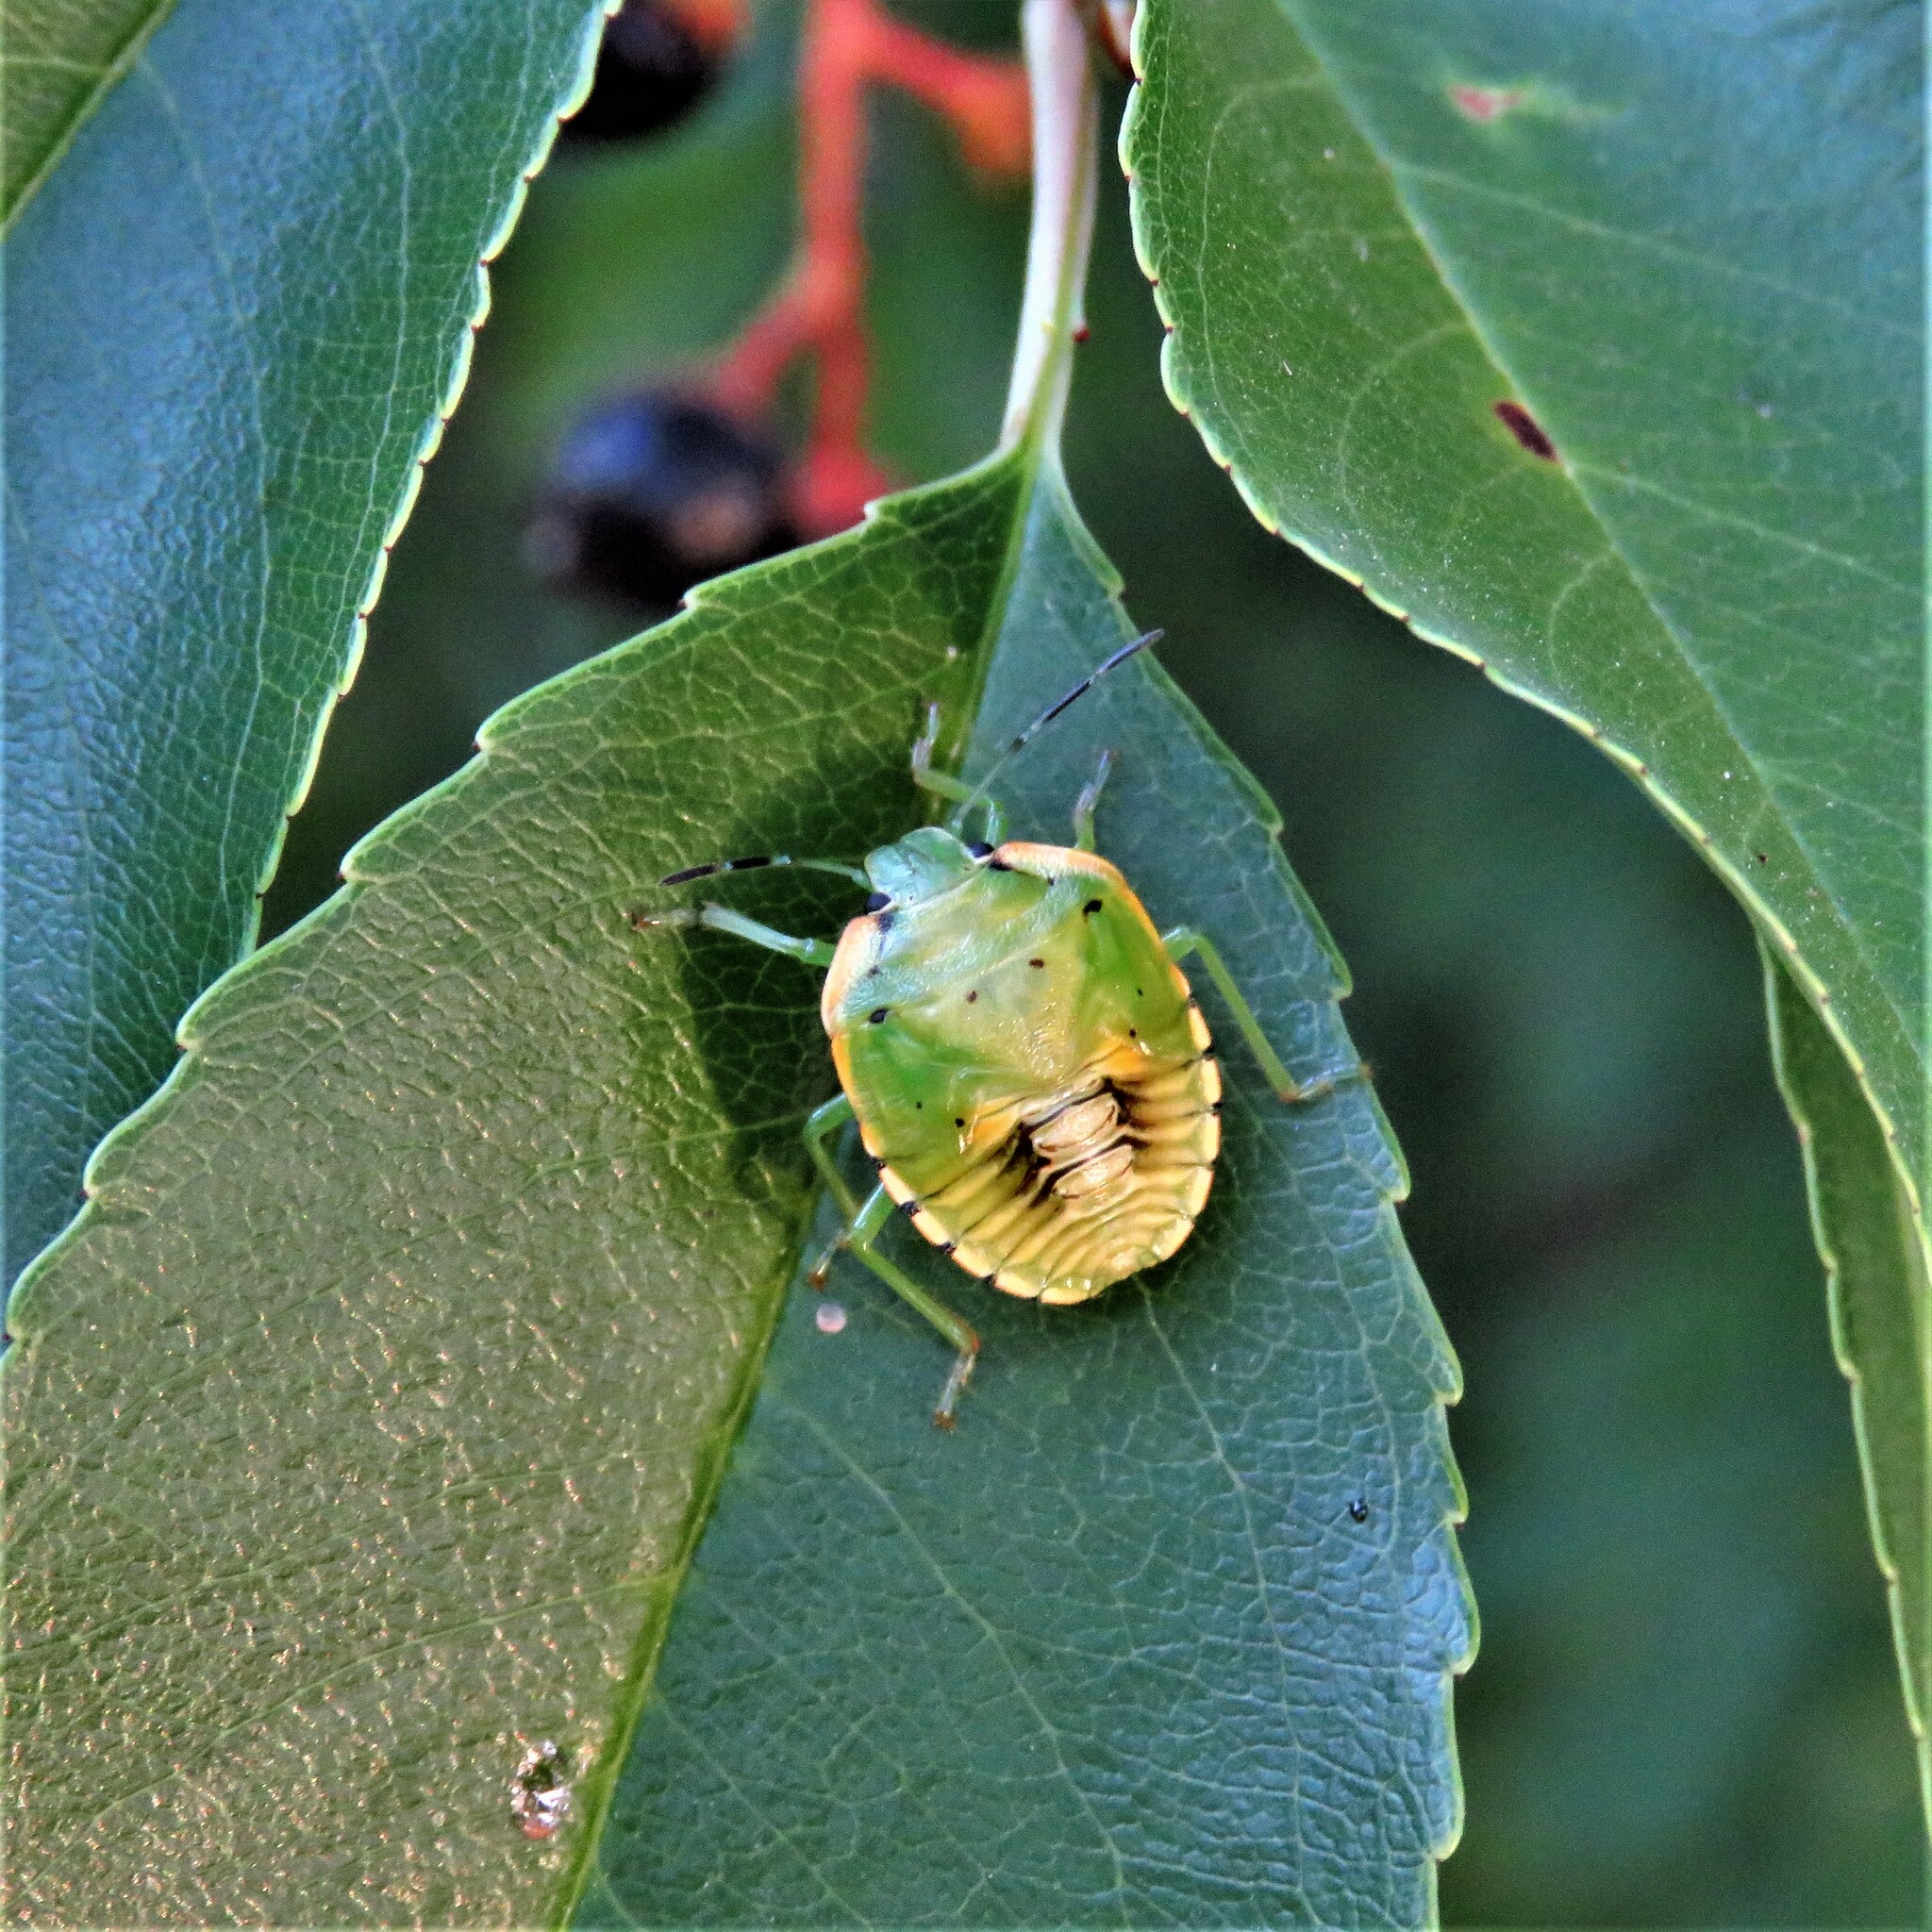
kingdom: Animalia
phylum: Arthropoda
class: Insecta
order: Hemiptera
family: Pentatomidae
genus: Chinavia
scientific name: Chinavia hilaris
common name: Green stink bug
